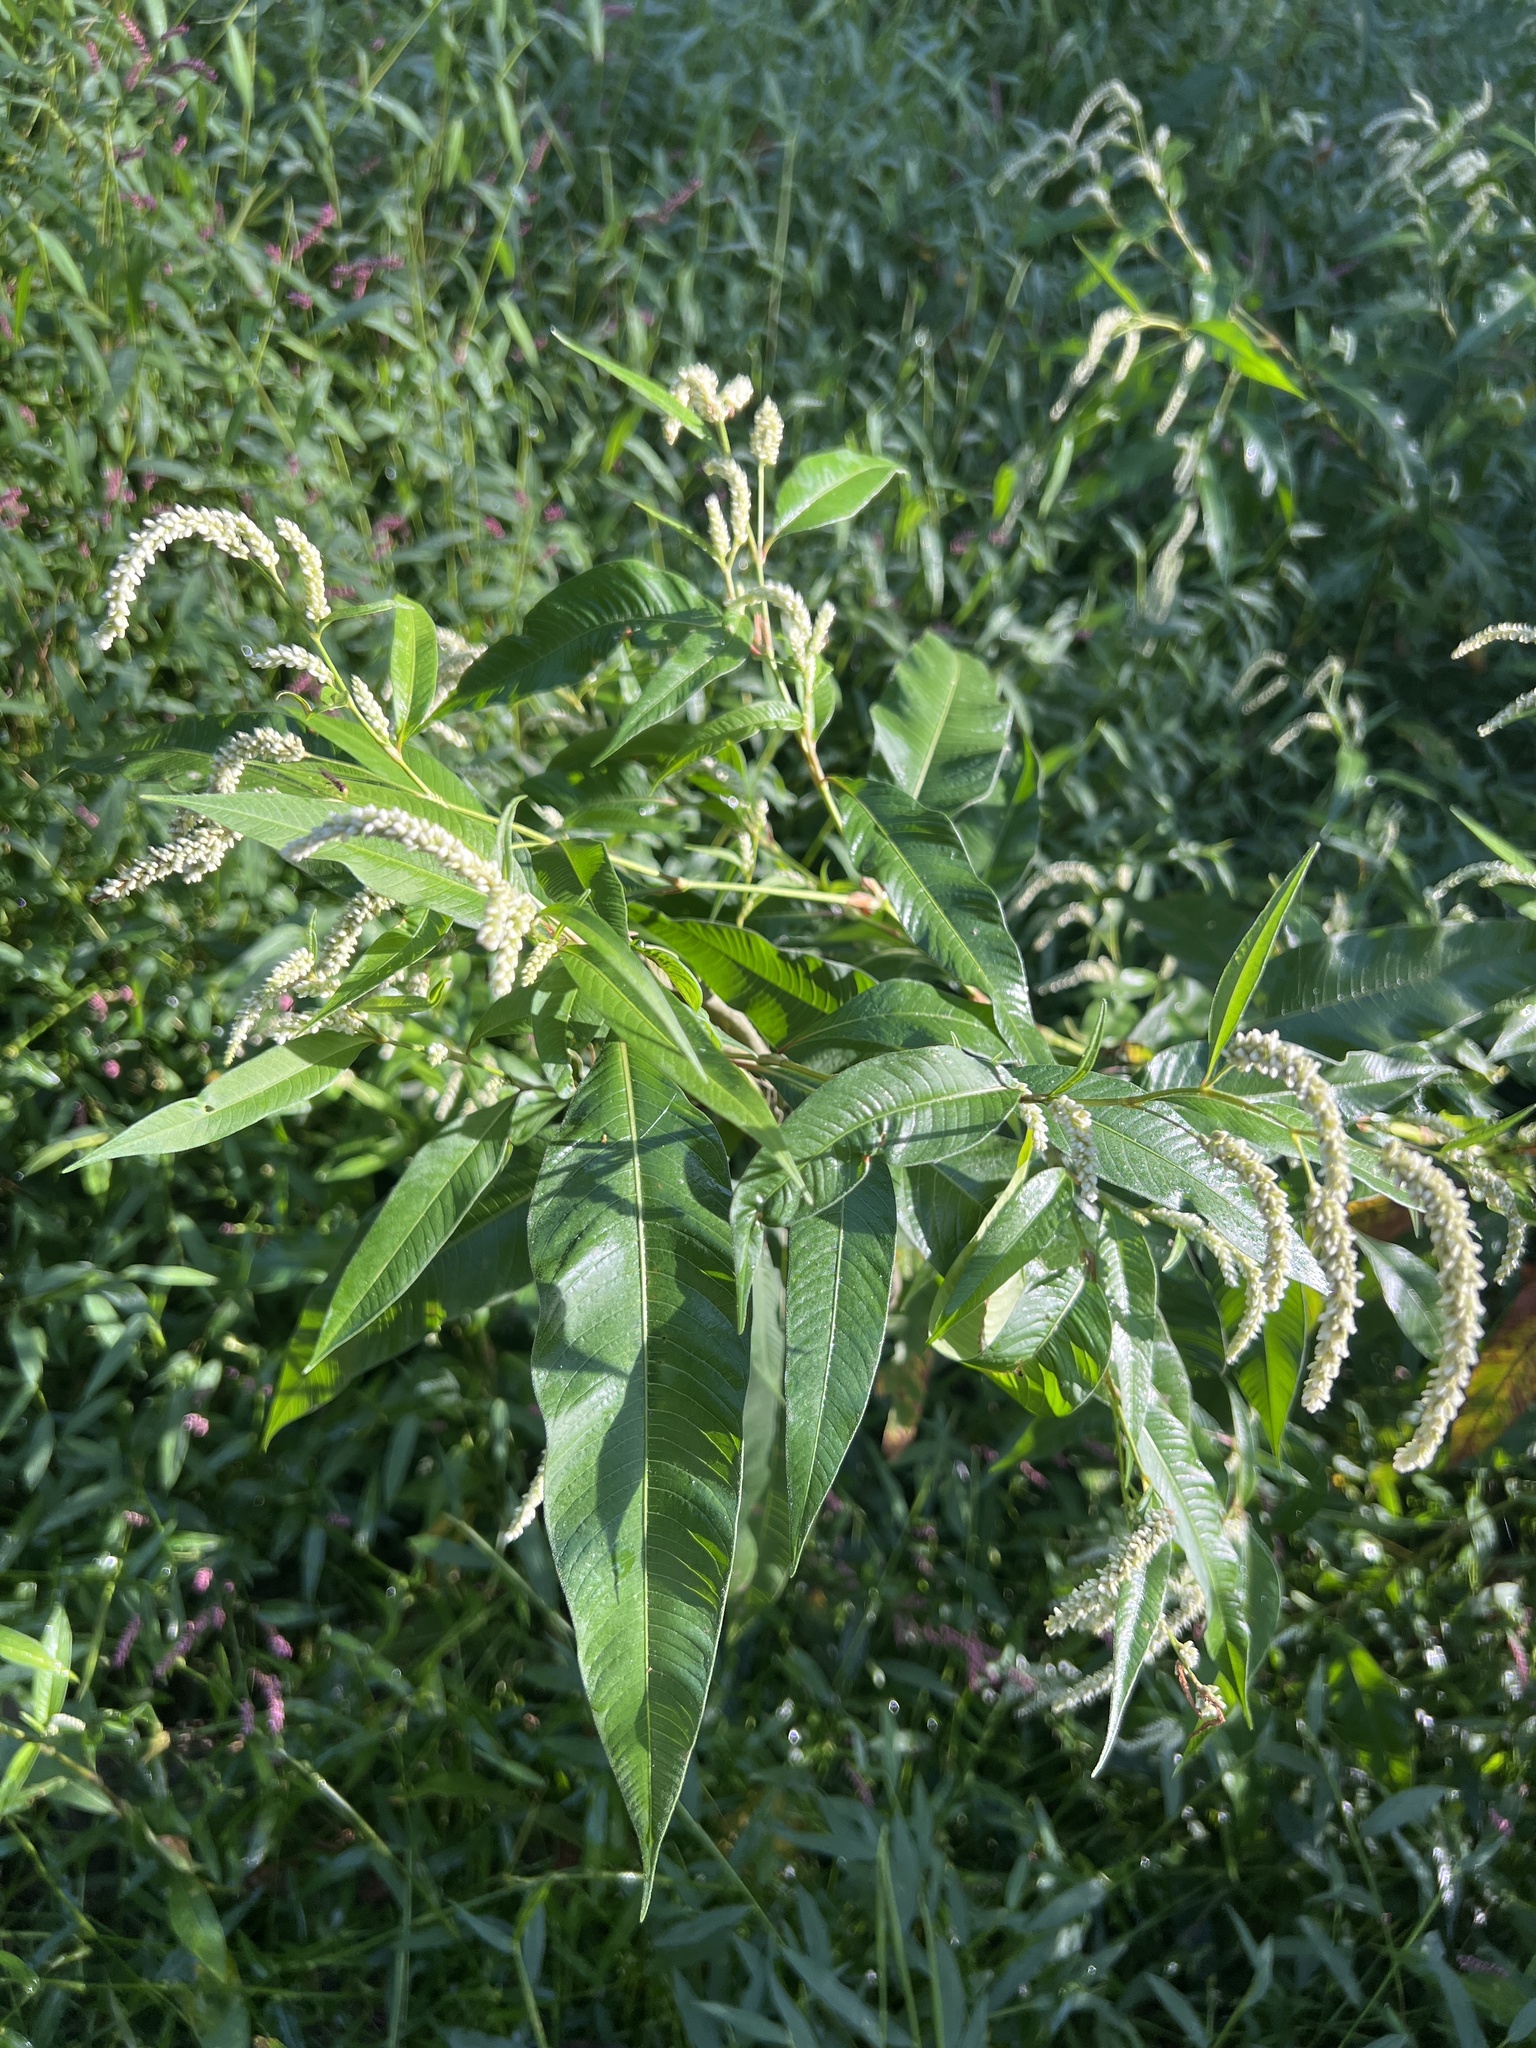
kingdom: Plantae
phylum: Tracheophyta
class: Magnoliopsida
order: Caryophyllales
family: Polygonaceae
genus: Persicaria
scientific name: Persicaria lapathifolia
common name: Curlytop knotweed
